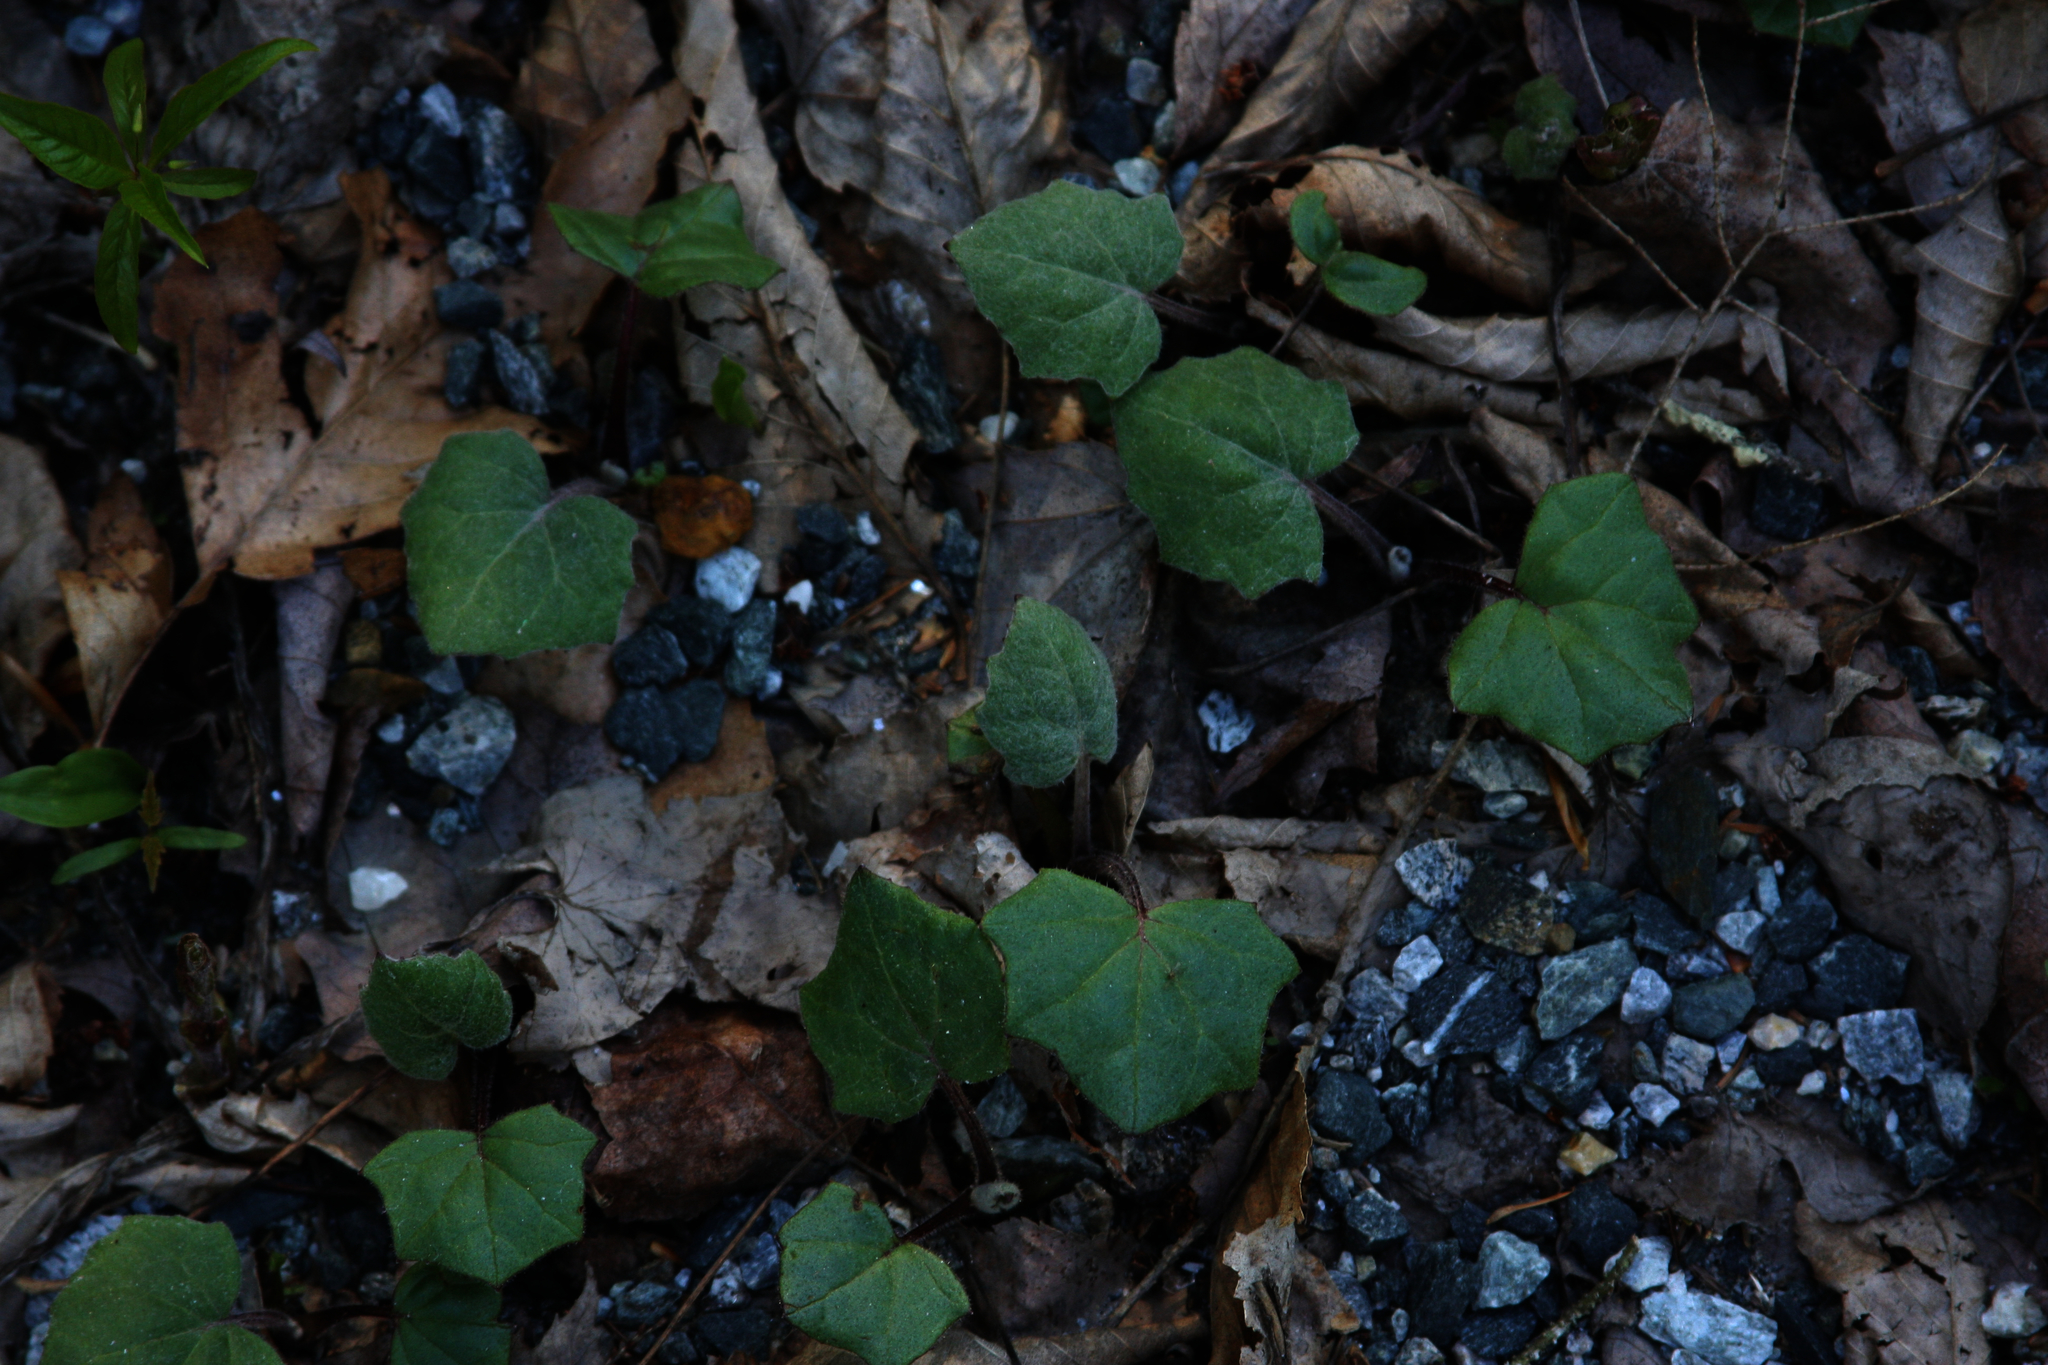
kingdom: Plantae
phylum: Tracheophyta
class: Magnoliopsida
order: Asterales
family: Asteraceae
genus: Tussilago
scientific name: Tussilago farfara
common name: Coltsfoot
